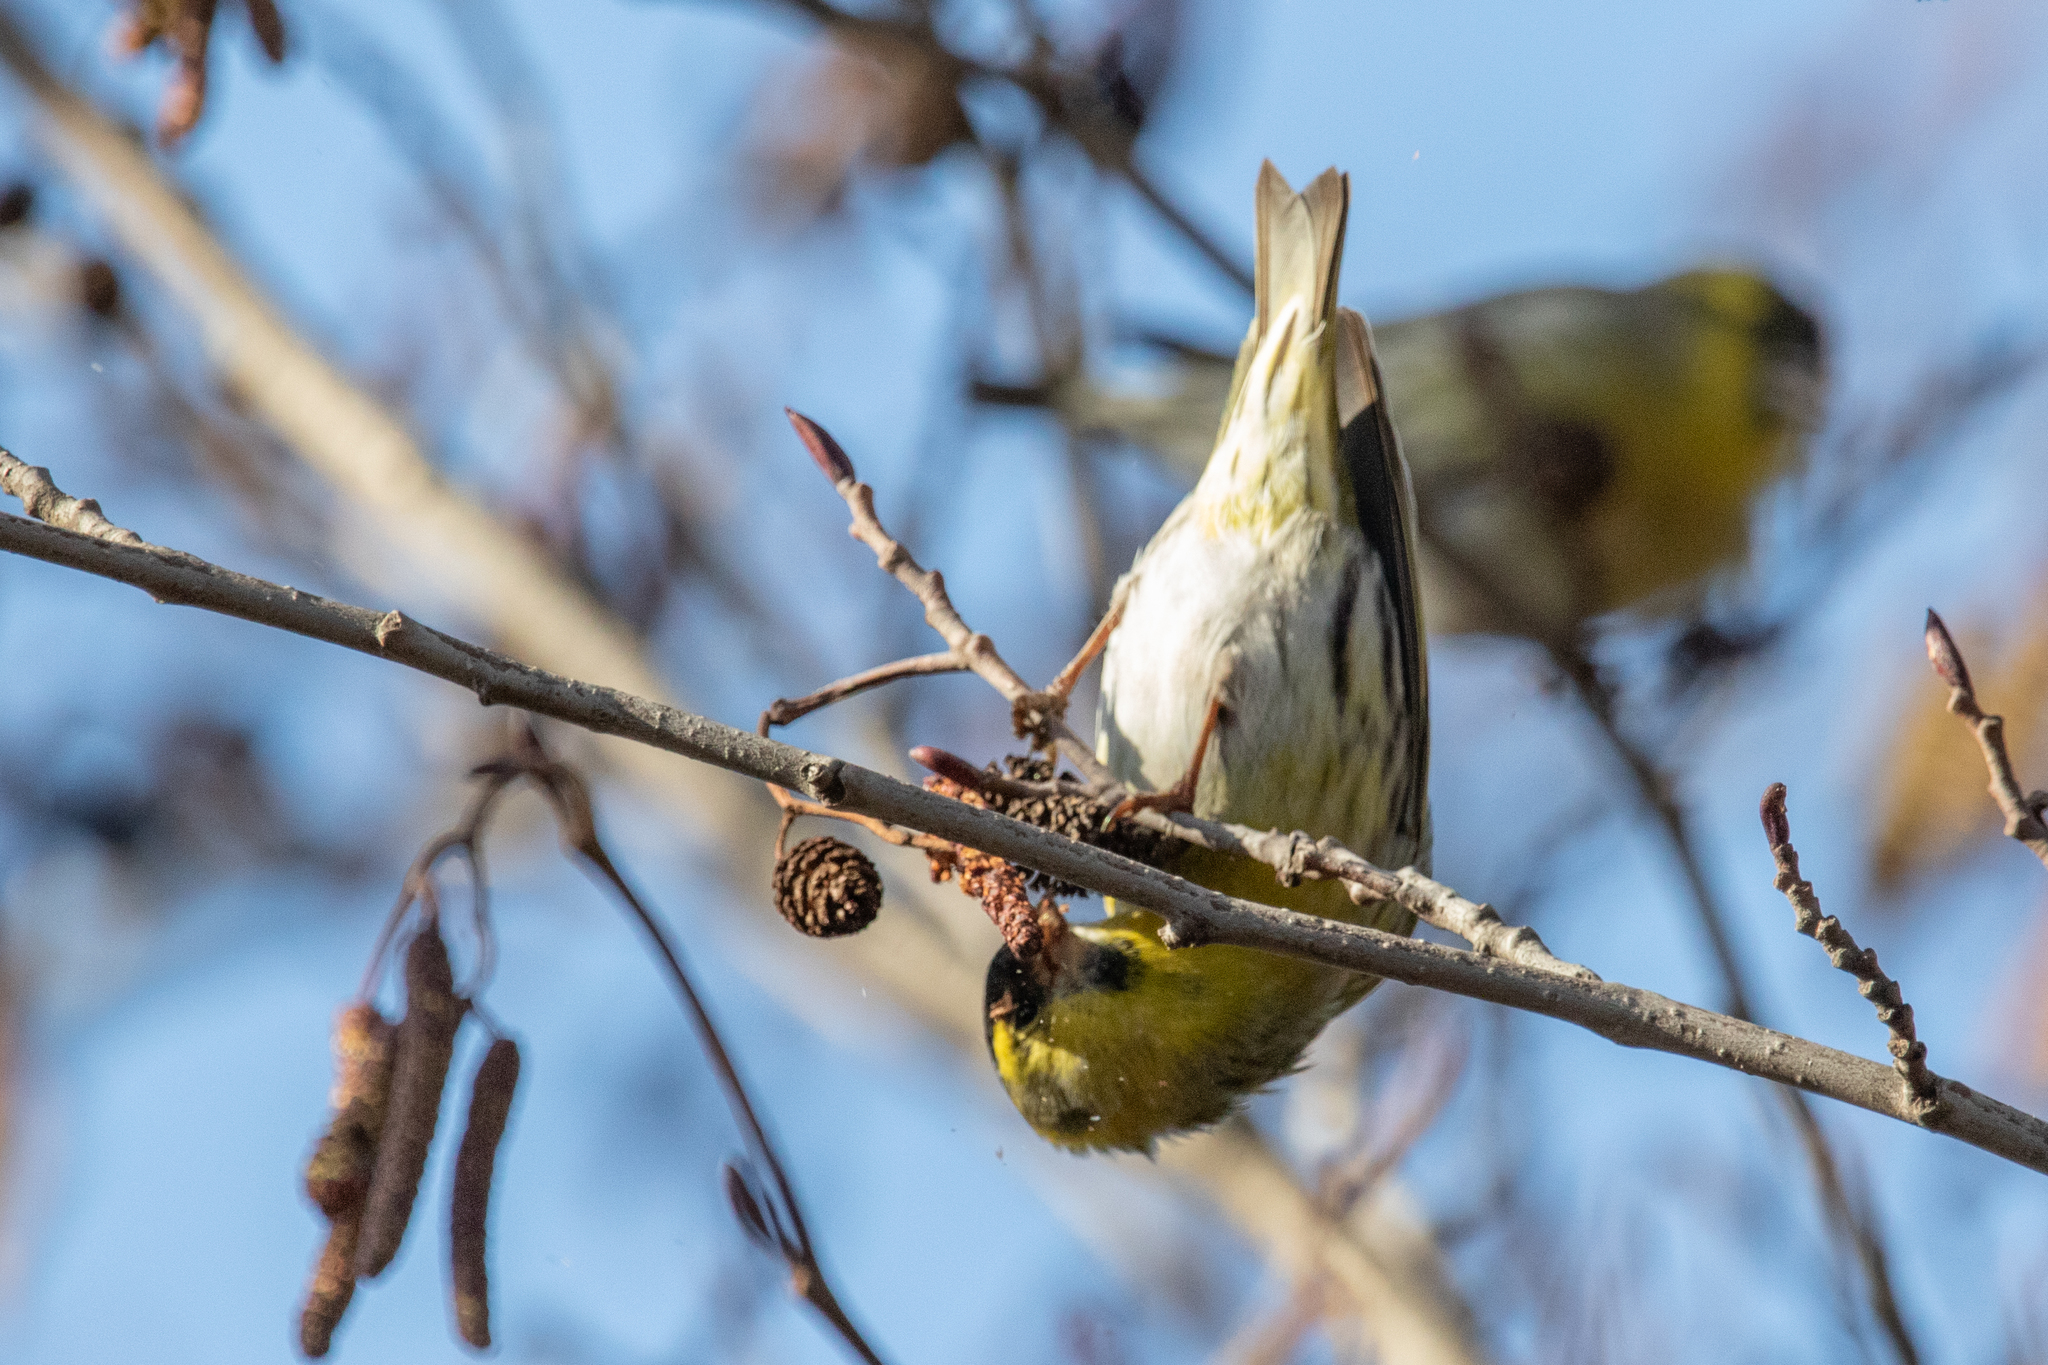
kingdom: Animalia
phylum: Chordata
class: Aves
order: Passeriformes
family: Fringillidae
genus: Spinus
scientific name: Spinus spinus
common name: Eurasian siskin
